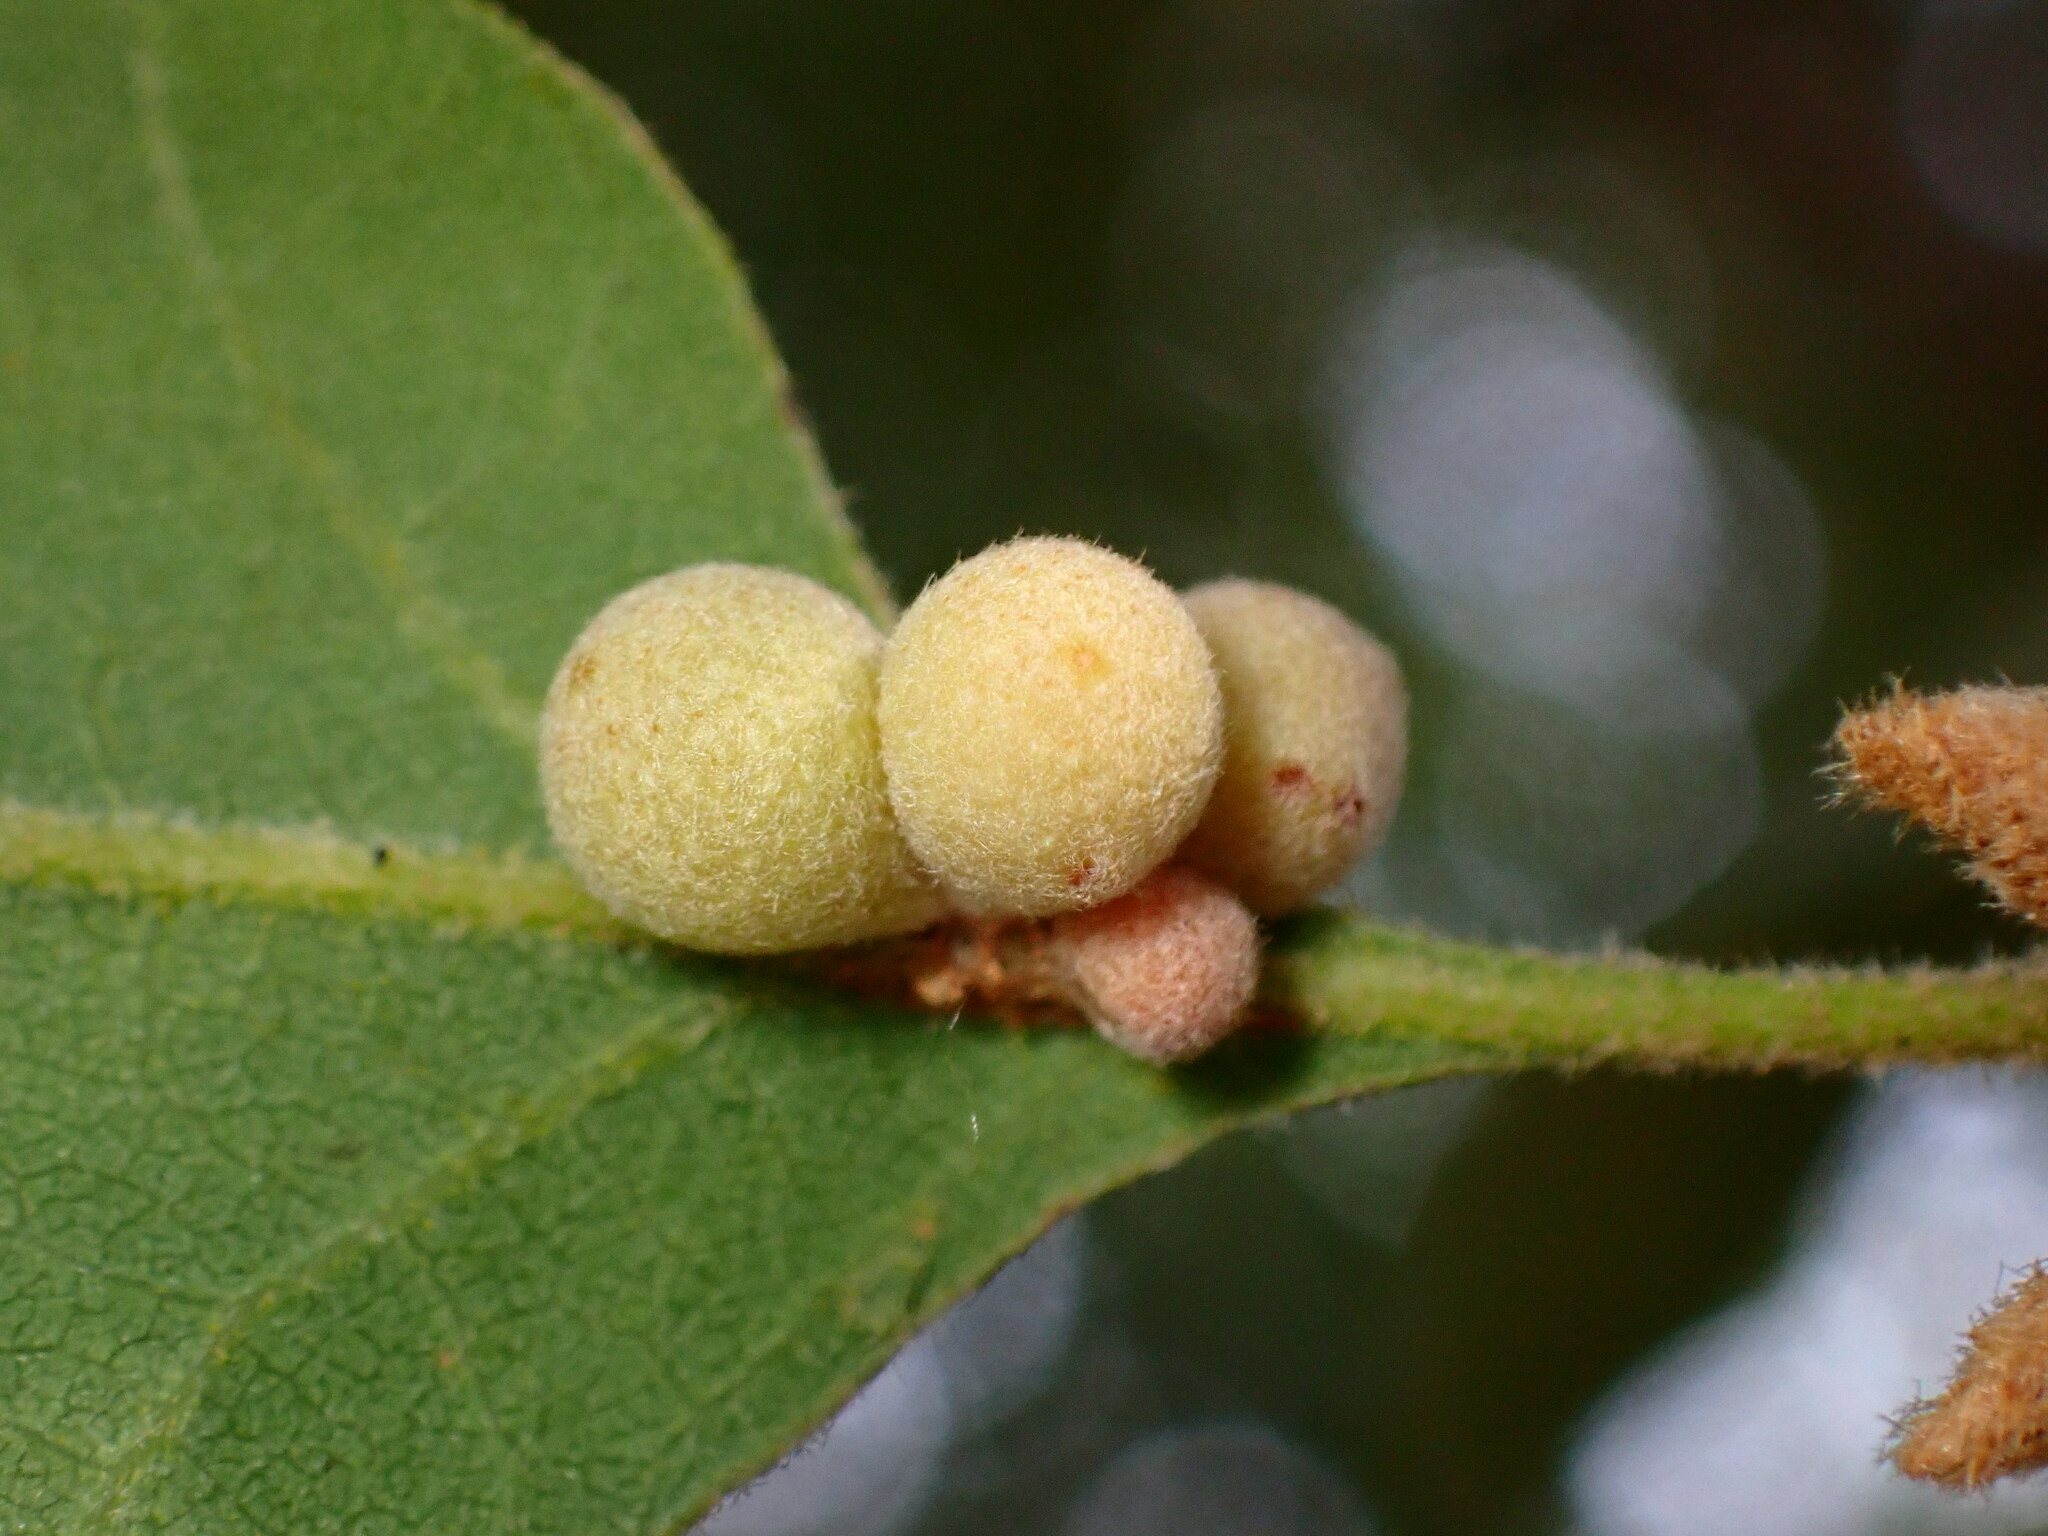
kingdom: Animalia
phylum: Arthropoda
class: Insecta
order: Hymenoptera
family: Cynipidae
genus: Andricus
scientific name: Andricus
